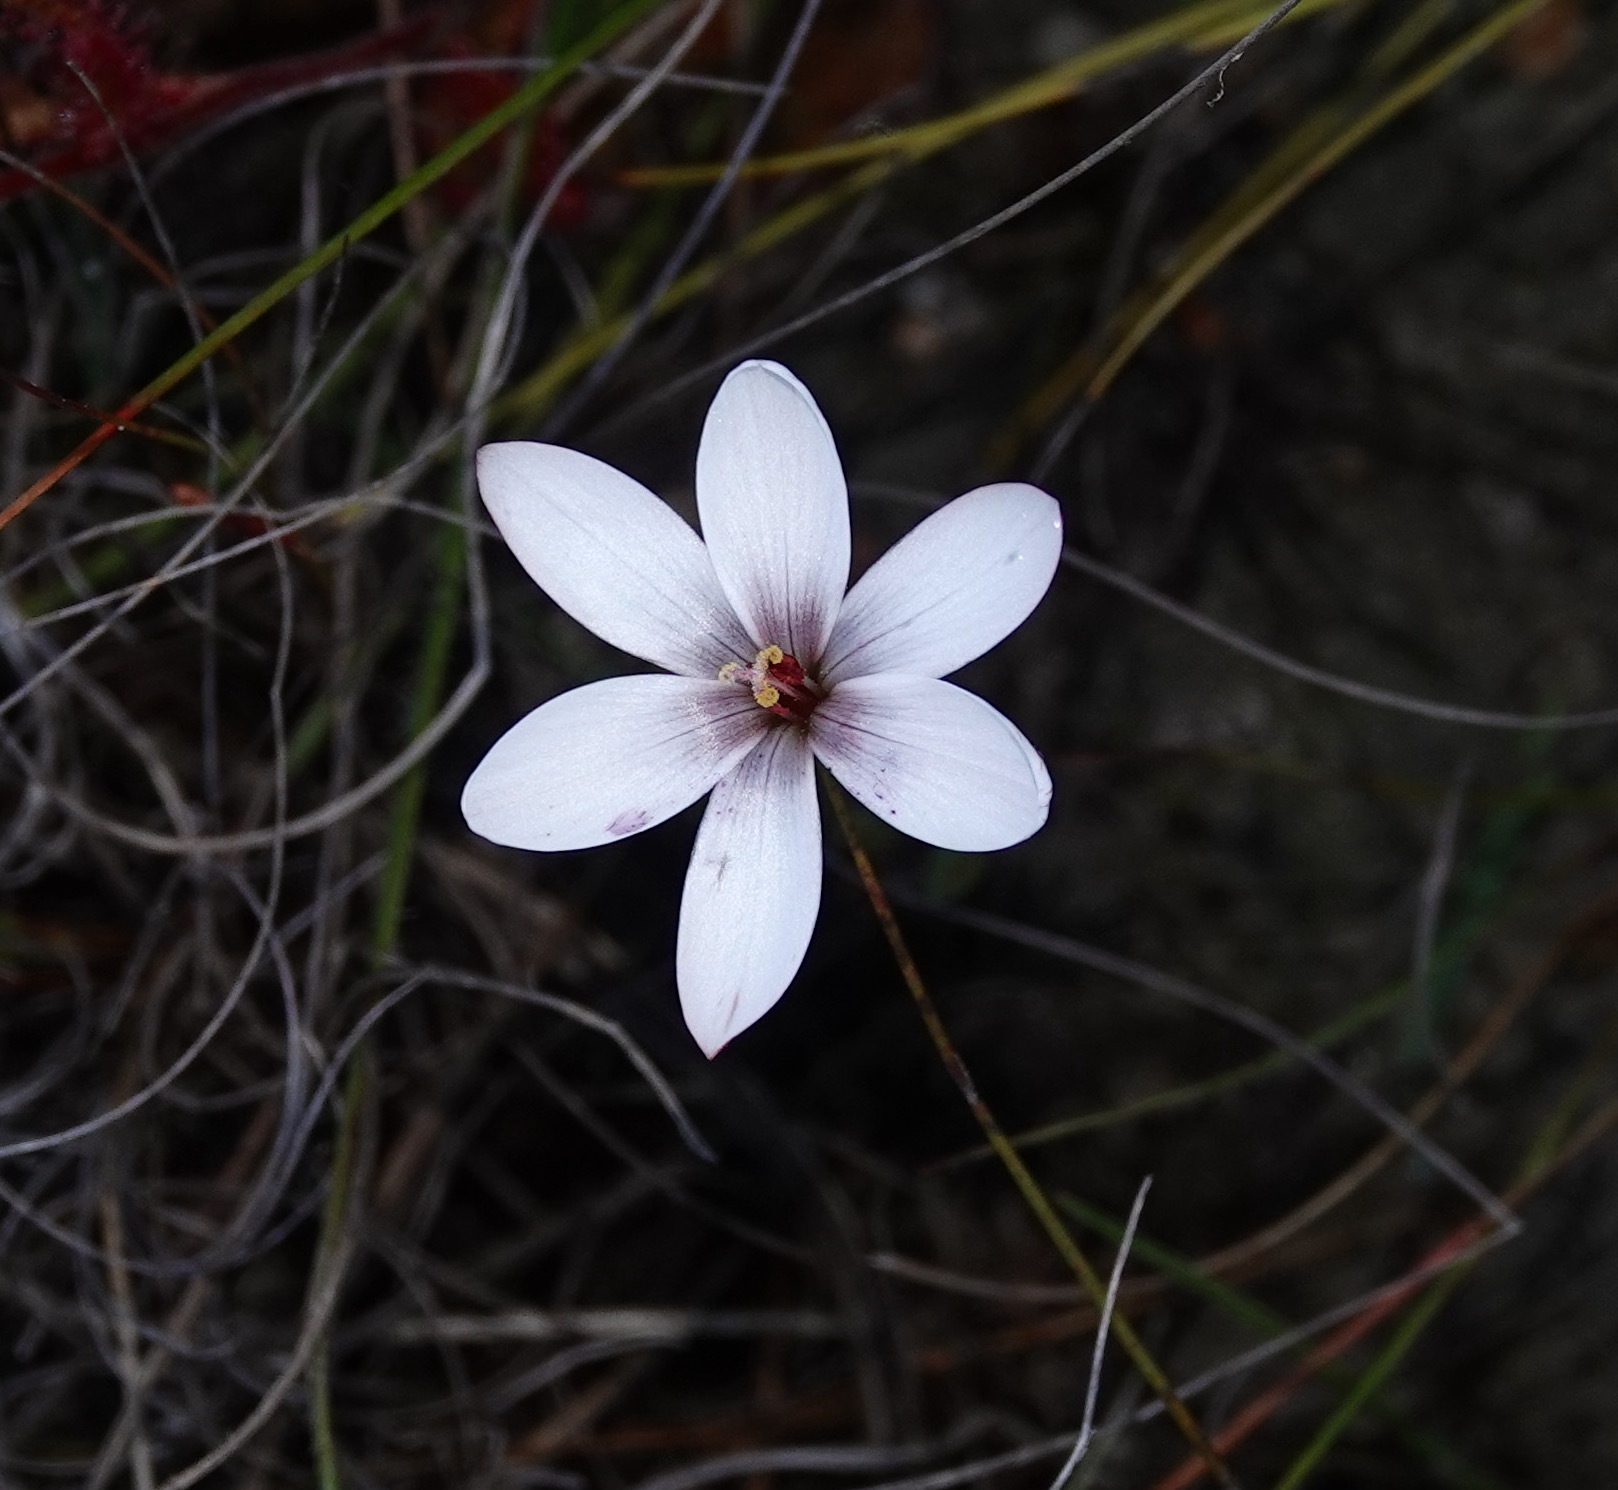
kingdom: Plantae
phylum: Tracheophyta
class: Liliopsida
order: Asparagales
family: Iridaceae
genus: Geissorhiza
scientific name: Geissorhiza ovata
